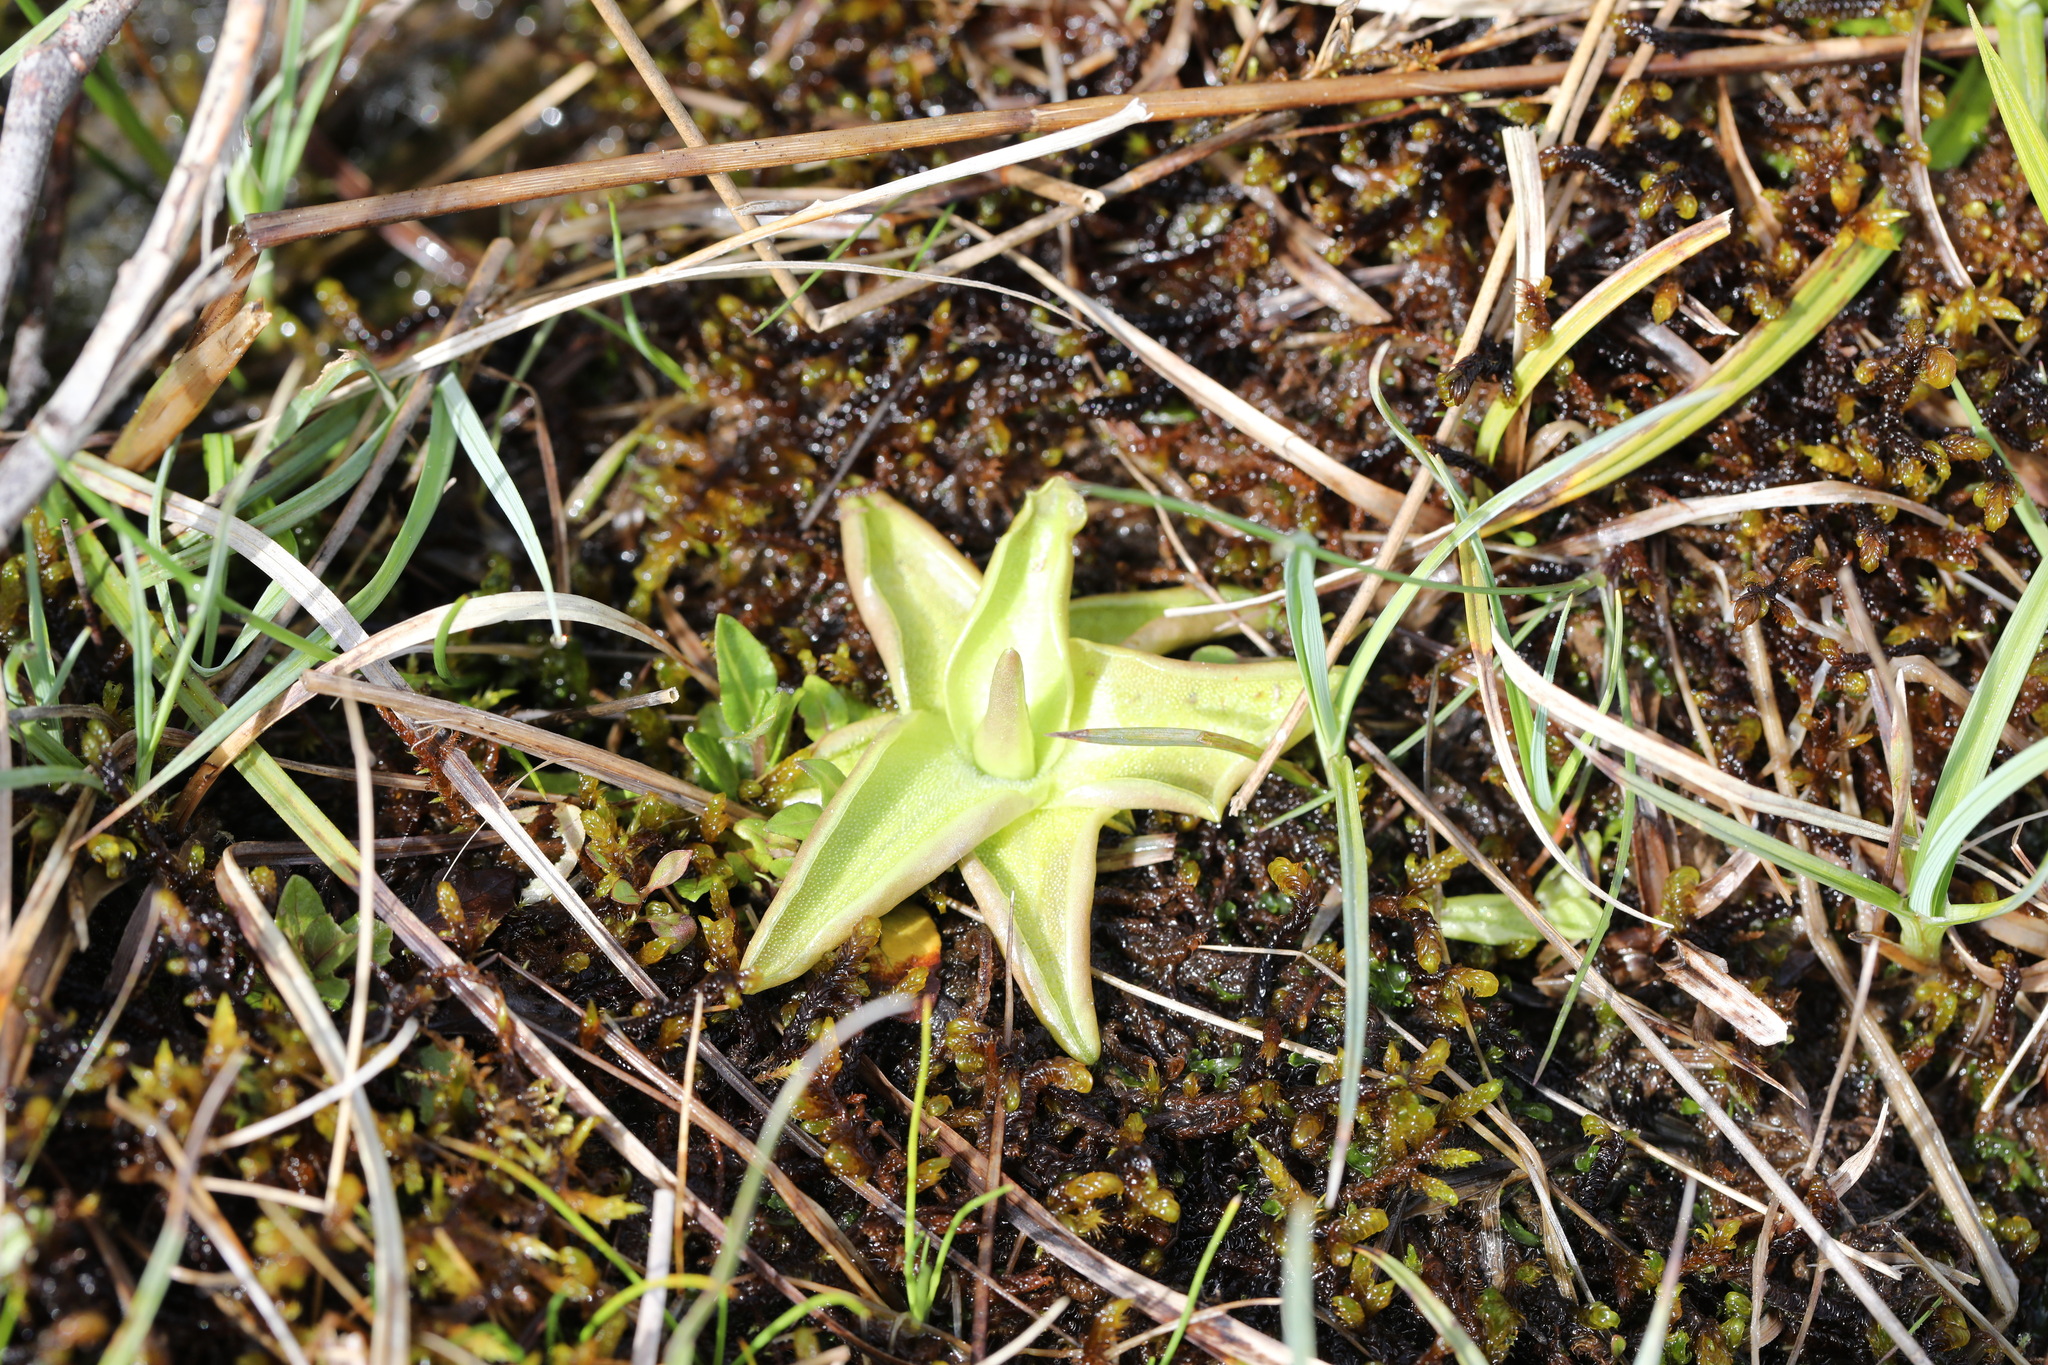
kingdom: Plantae
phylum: Tracheophyta
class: Magnoliopsida
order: Lamiales
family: Lentibulariaceae
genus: Pinguicula
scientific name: Pinguicula vulgaris
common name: Common butterwort
